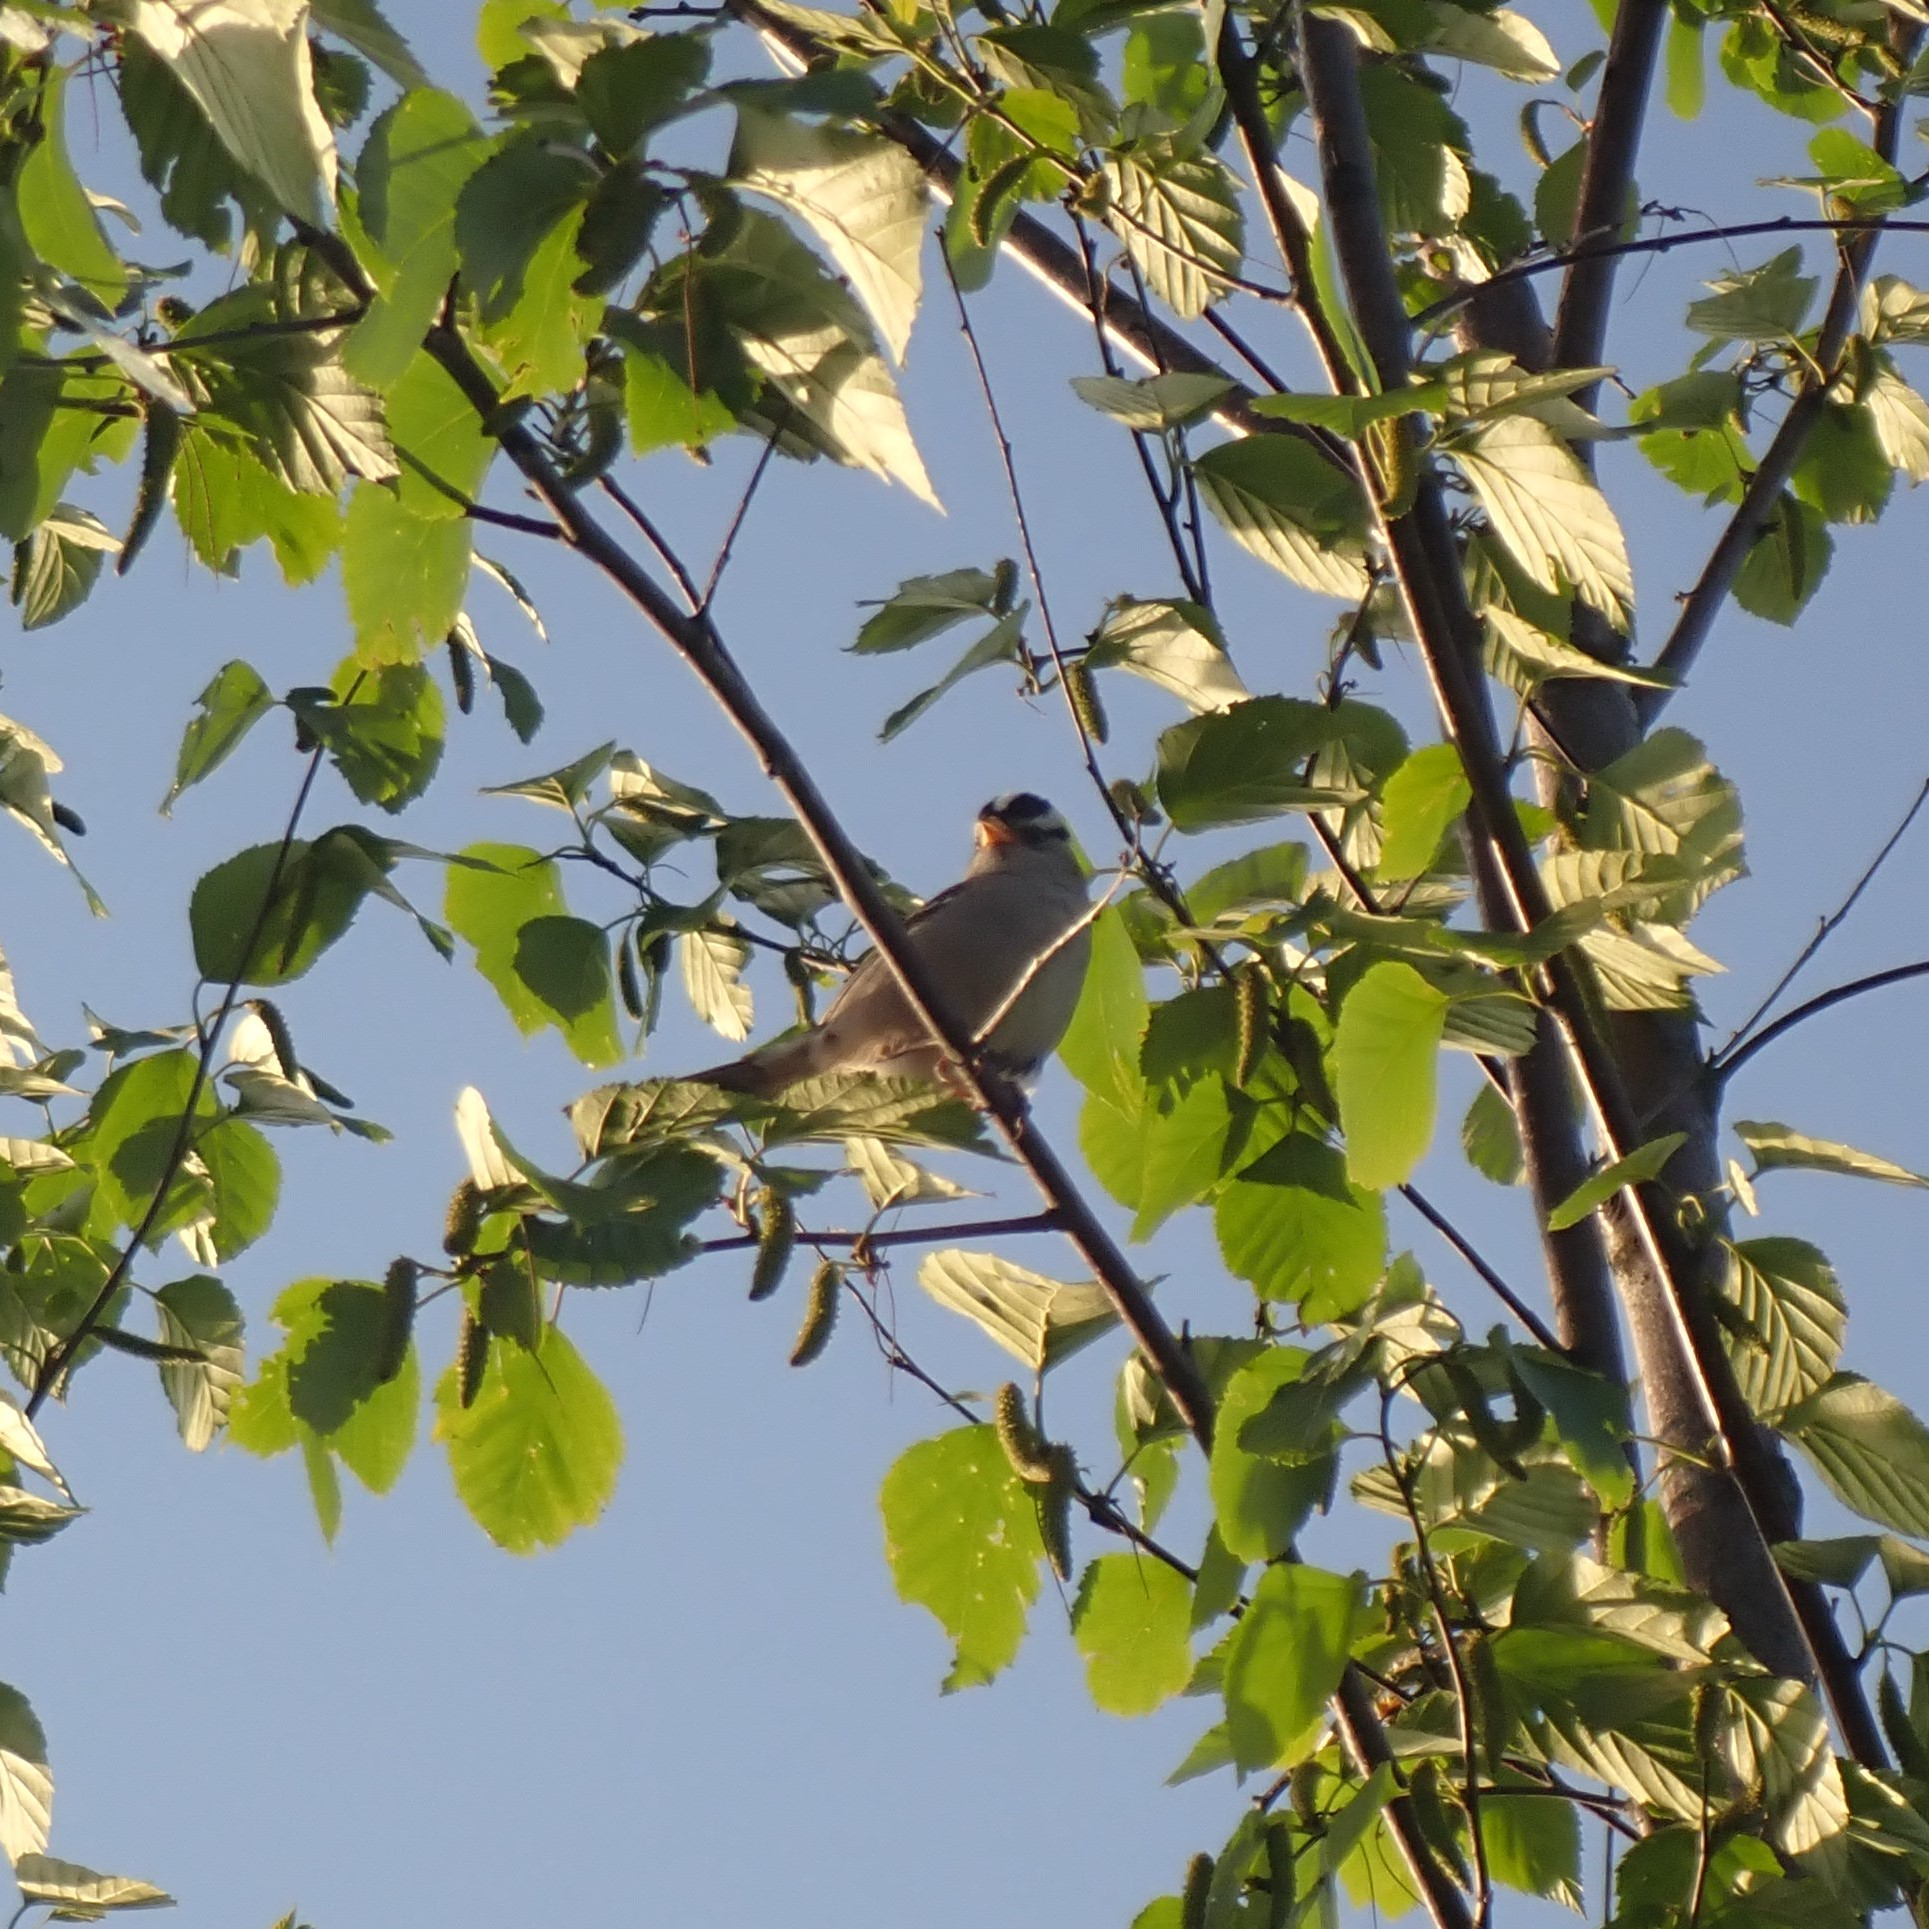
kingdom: Animalia
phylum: Chordata
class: Aves
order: Passeriformes
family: Passerellidae
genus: Zonotrichia
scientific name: Zonotrichia leucophrys
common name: White-crowned sparrow
